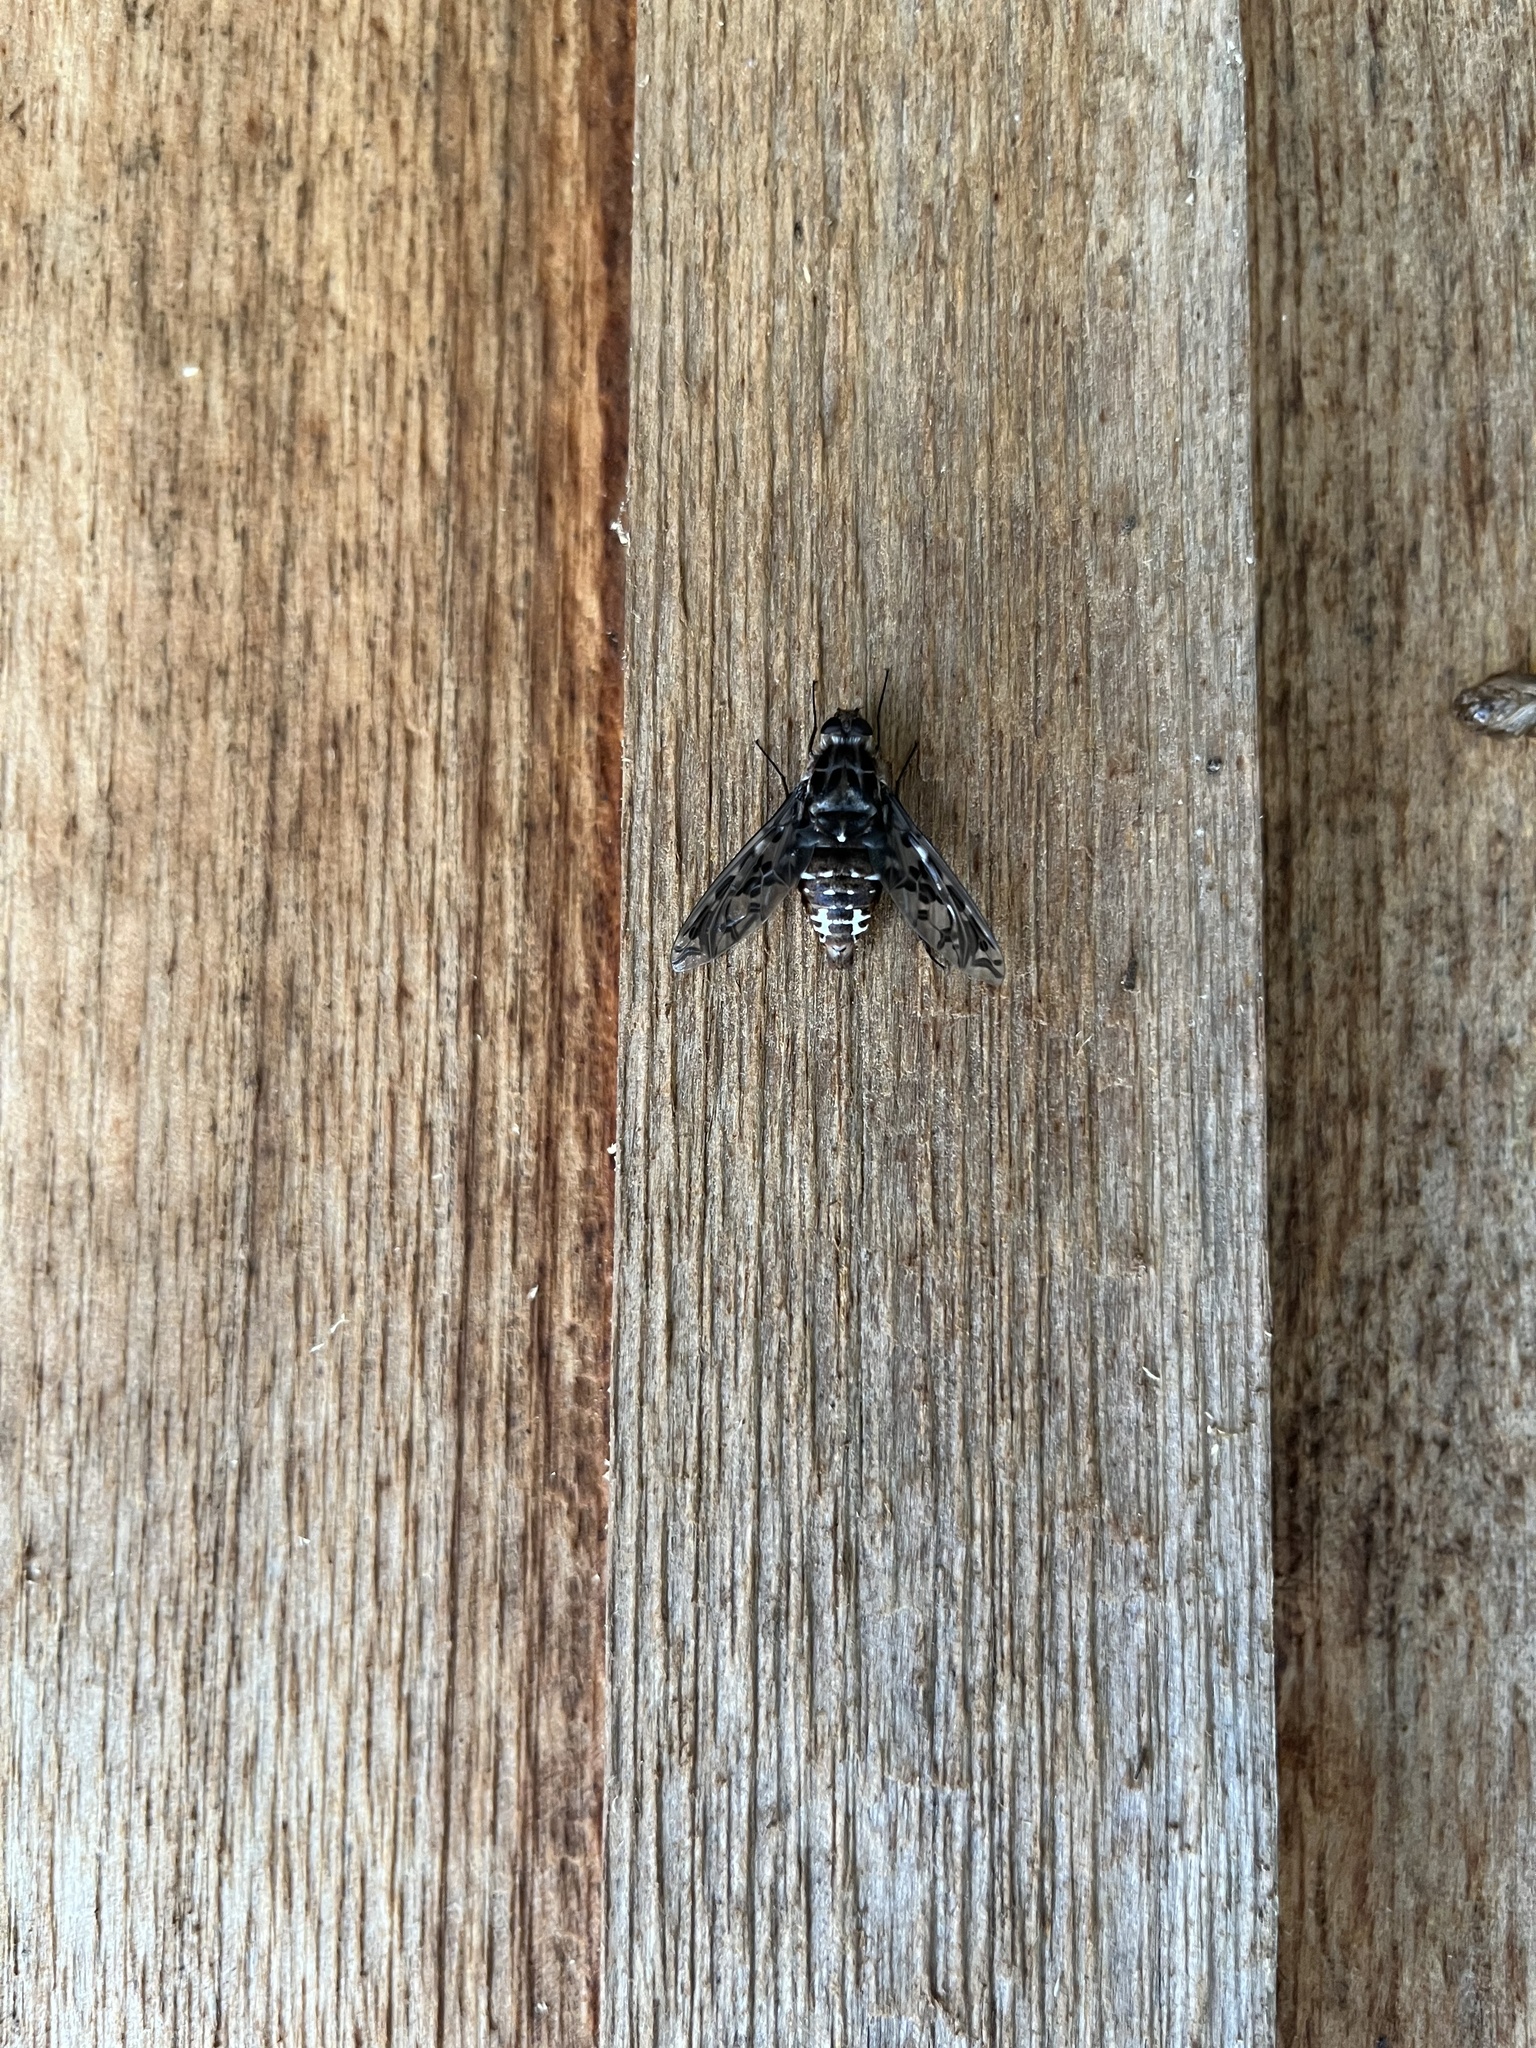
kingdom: Animalia
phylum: Arthropoda
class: Insecta
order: Diptera
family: Bombyliidae
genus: Xenox
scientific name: Xenox tigrinus
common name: Tiger bee fly
